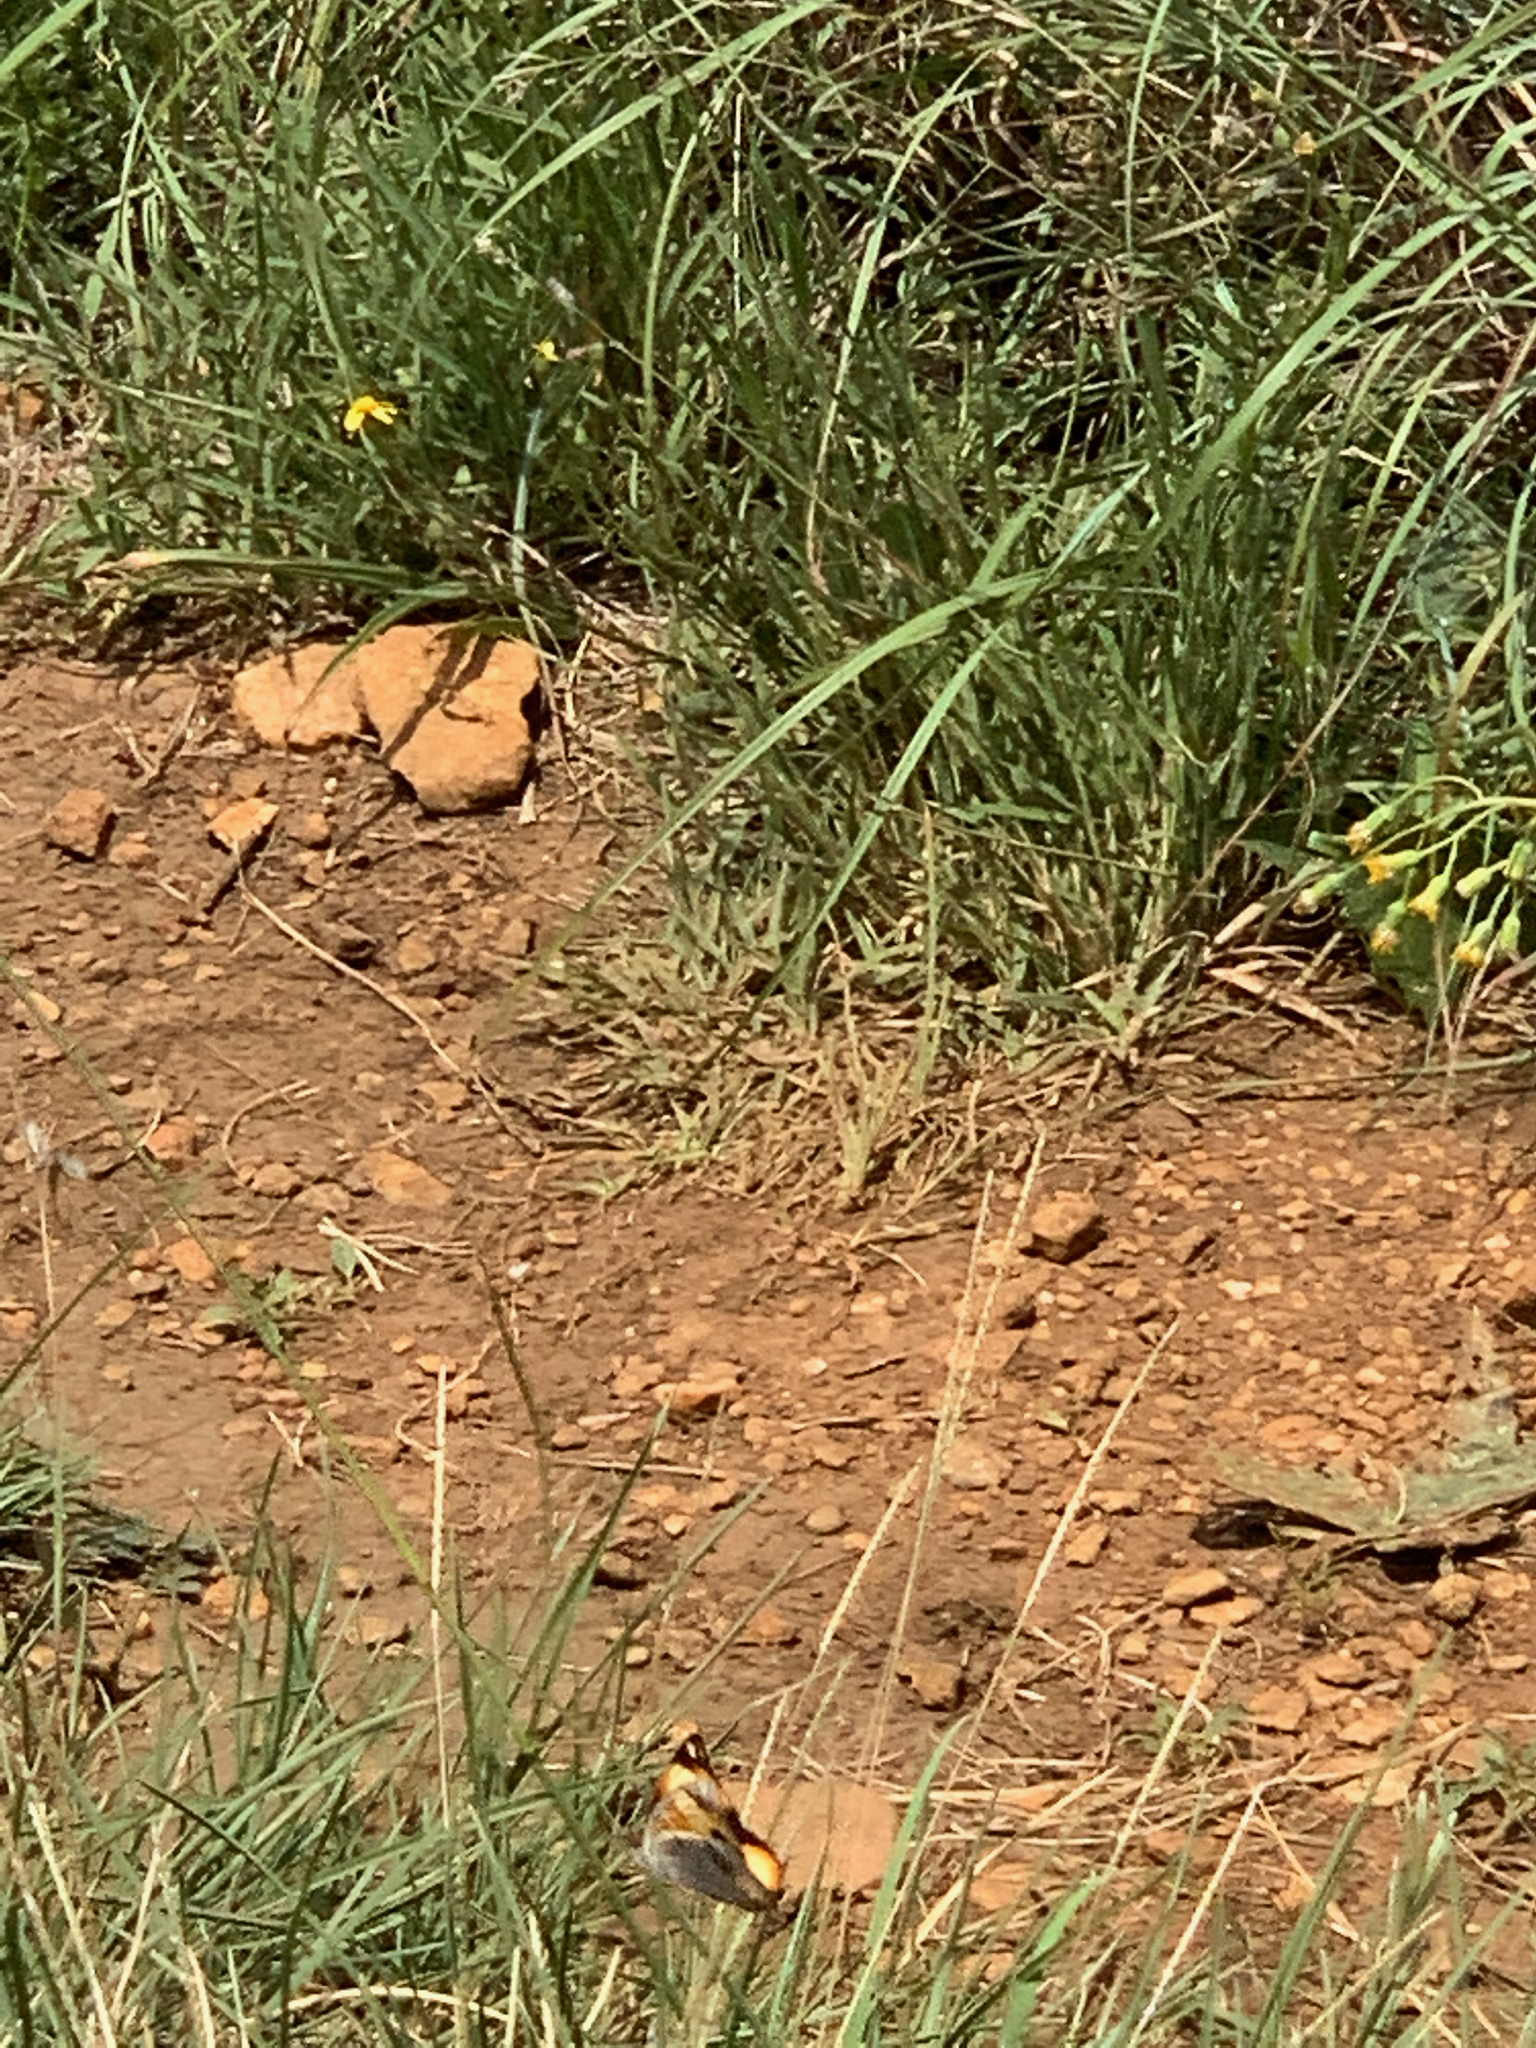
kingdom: Animalia
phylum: Arthropoda
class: Insecta
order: Lepidoptera
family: Nymphalidae
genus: Junonia
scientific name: Junonia hierta
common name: Yellow pansy
